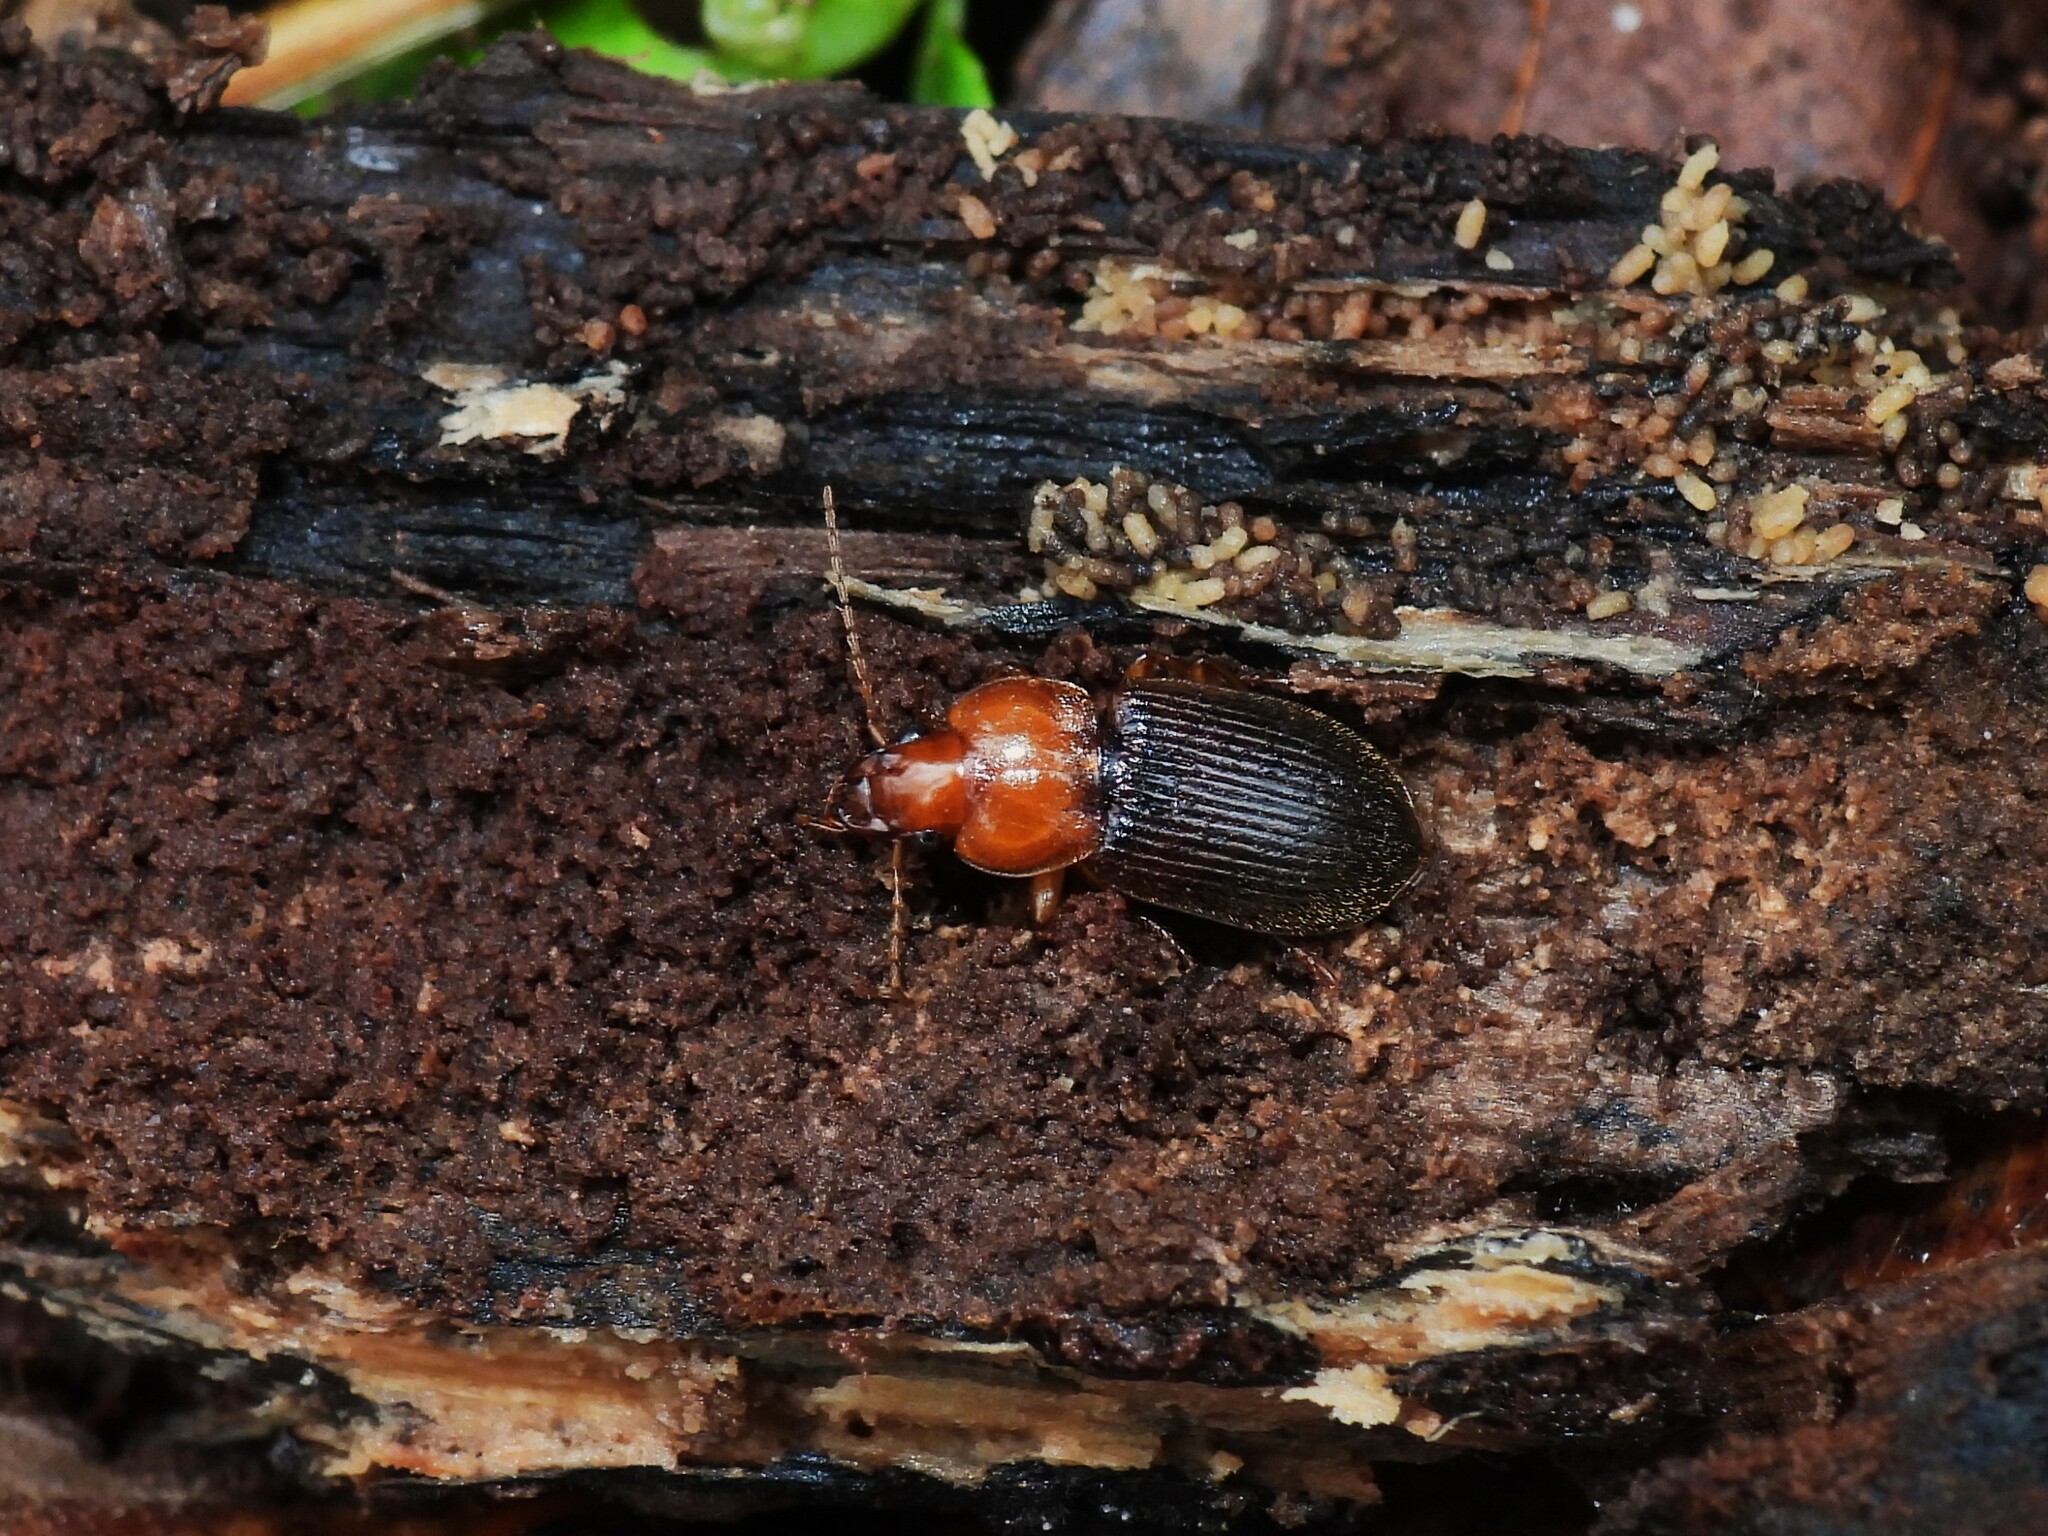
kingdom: Animalia
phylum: Arthropoda
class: Insecta
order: Coleoptera
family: Carabidae
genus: Amphasia
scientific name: Amphasia interstitialis
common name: Red-headed ground beetle
